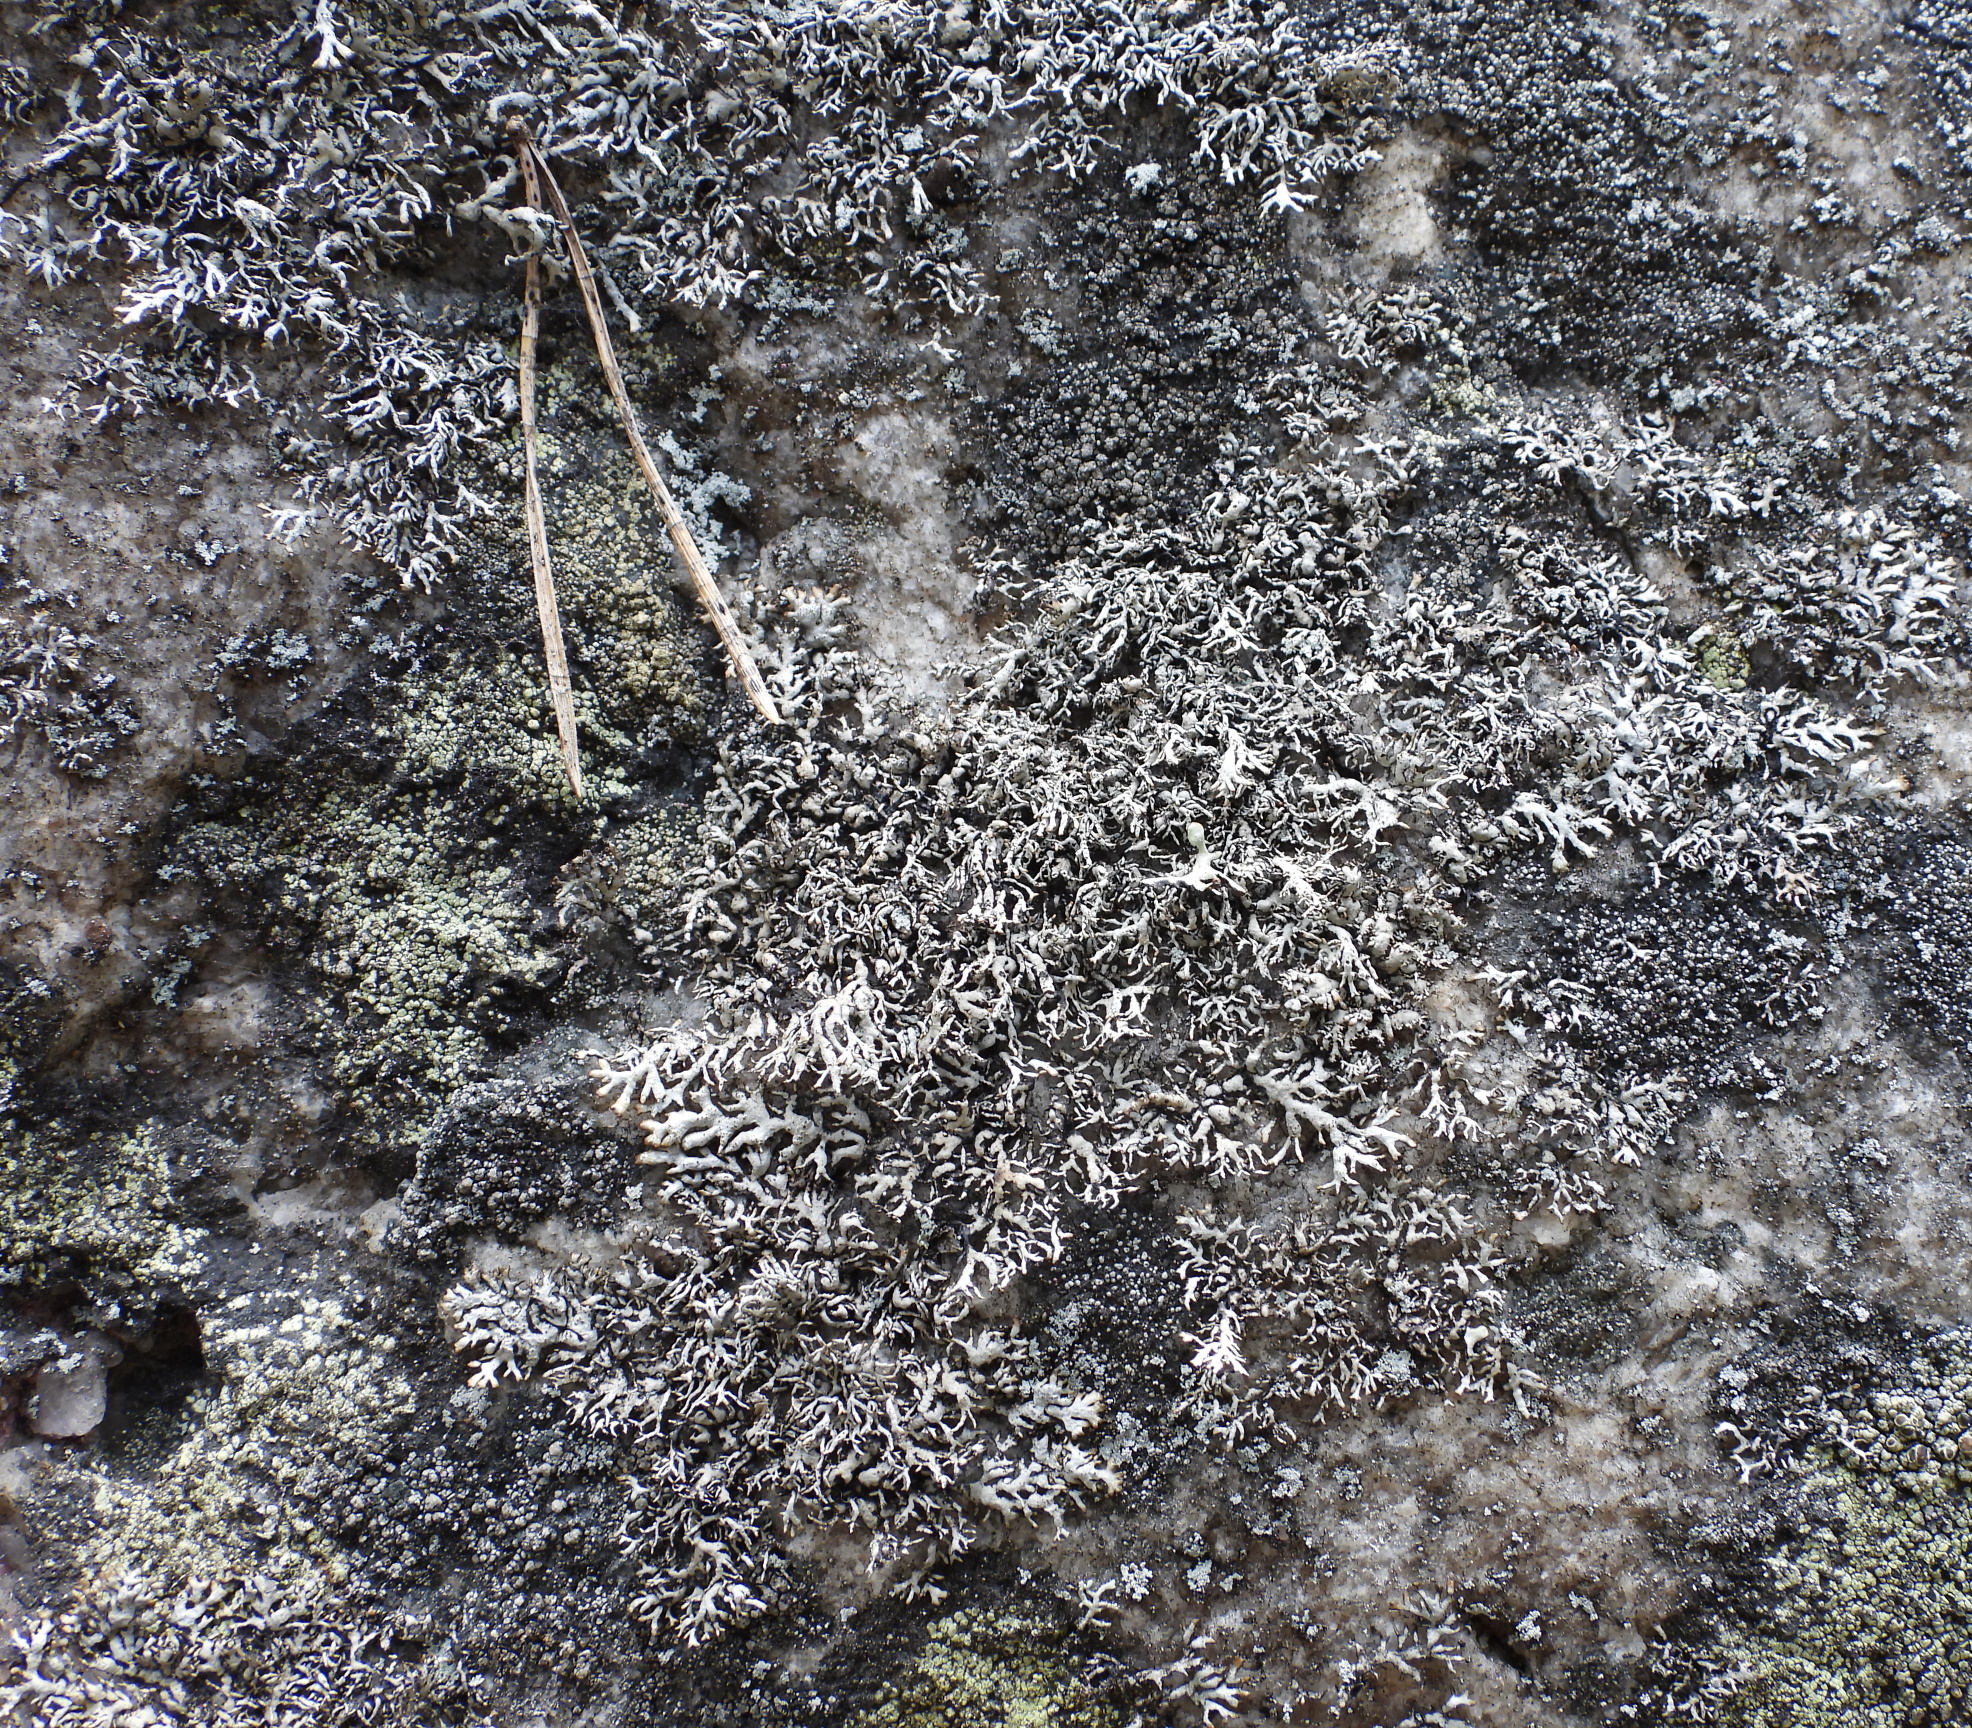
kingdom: Fungi
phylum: Ascomycota
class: Lecanoromycetes
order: Lecanorales
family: Parmeliaceae
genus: Brodoa
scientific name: Brodoa intestiniformis
